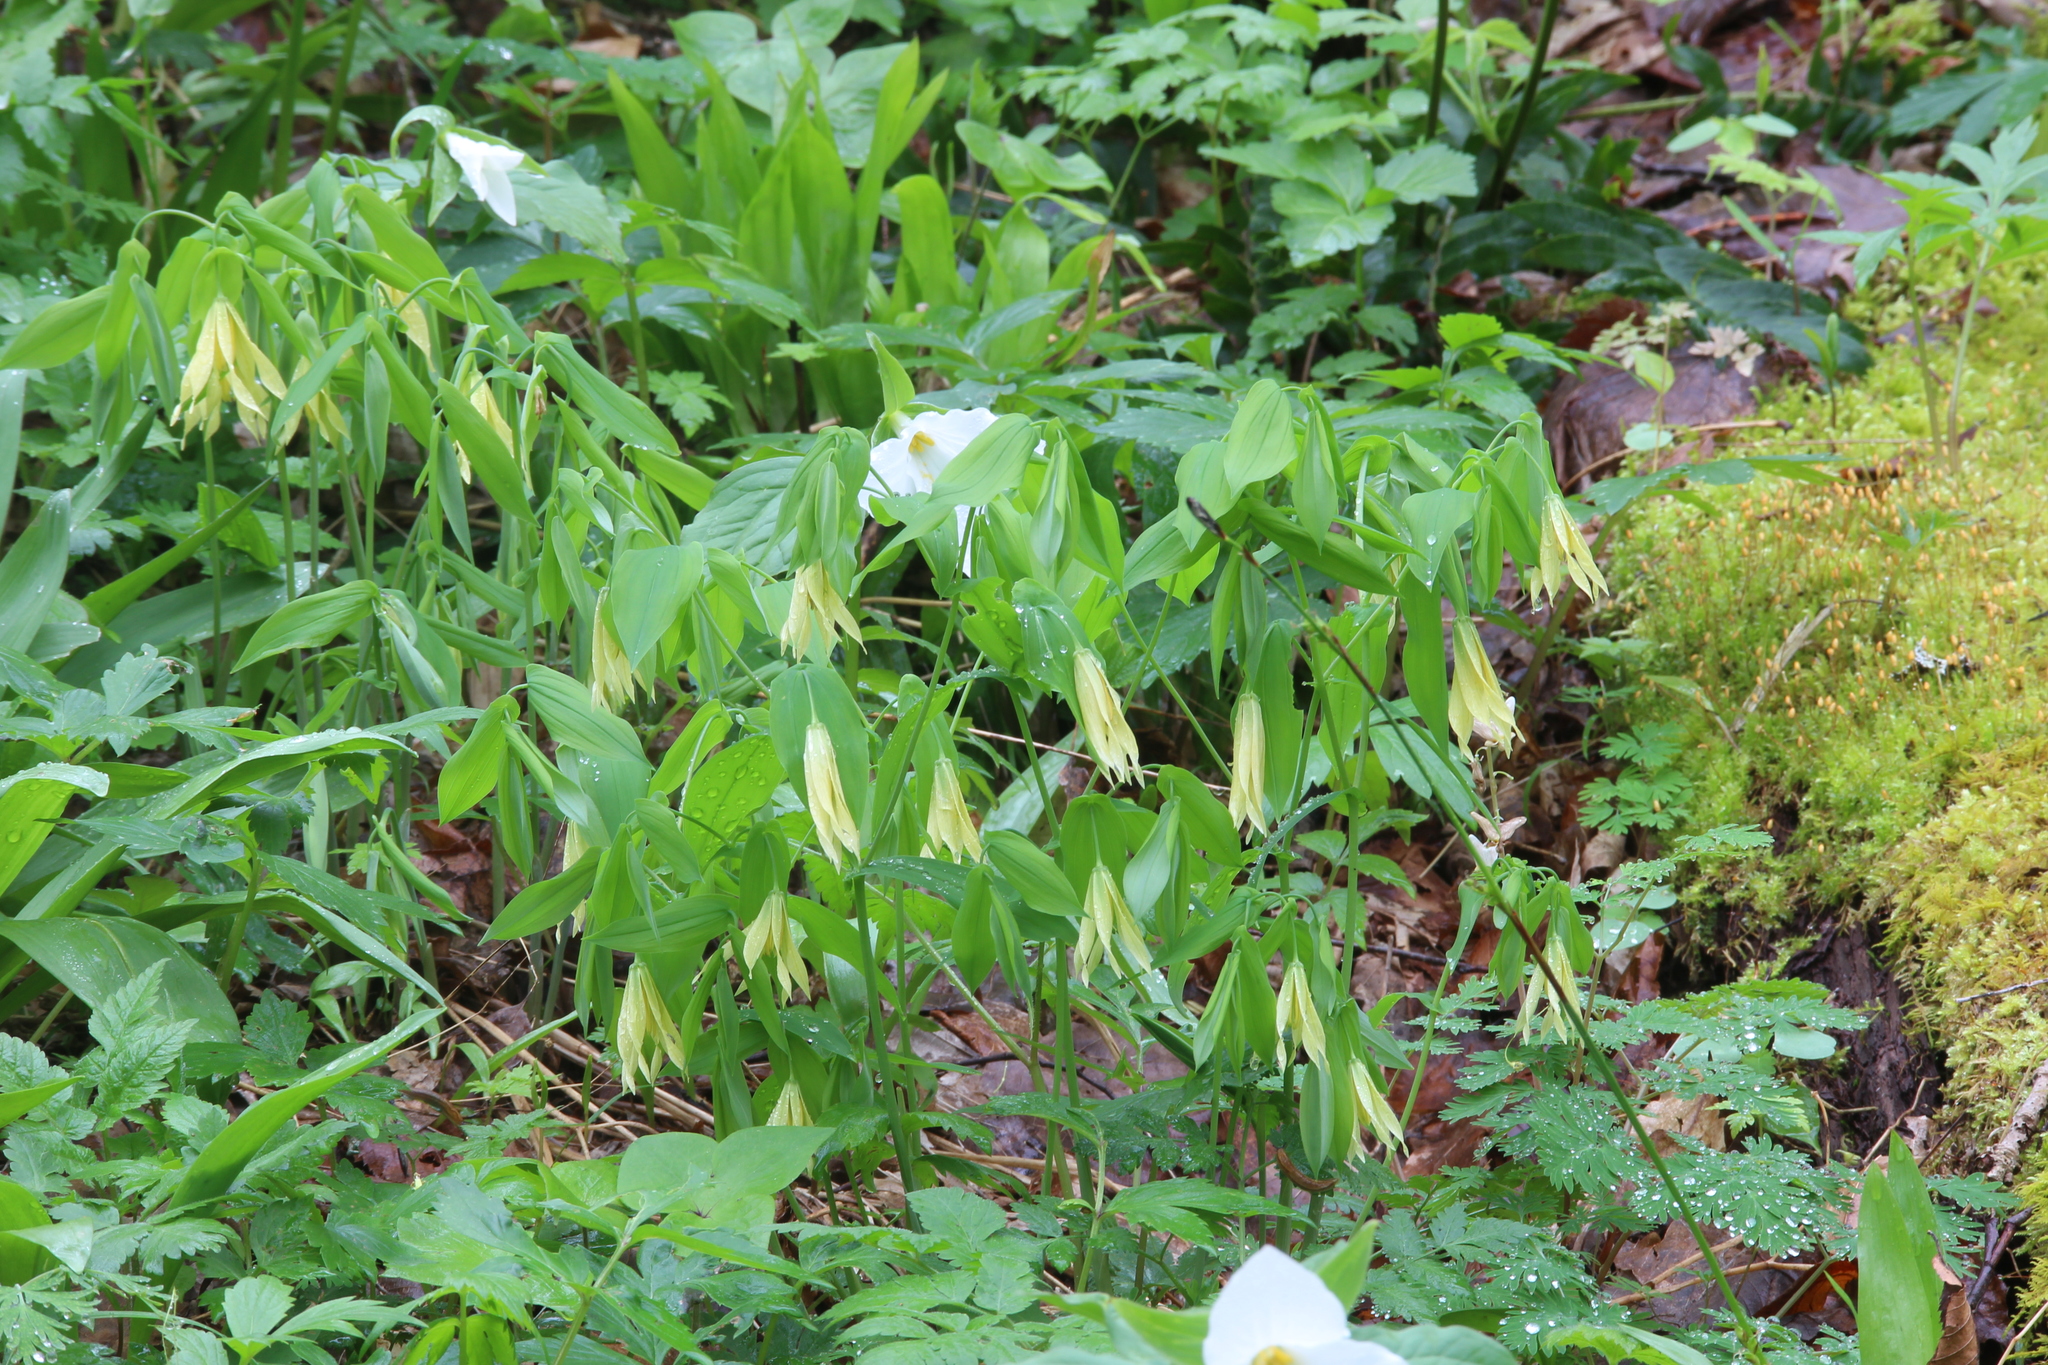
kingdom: Plantae
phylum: Tracheophyta
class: Liliopsida
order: Liliales
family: Colchicaceae
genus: Uvularia
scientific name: Uvularia grandiflora
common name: Bellwort
